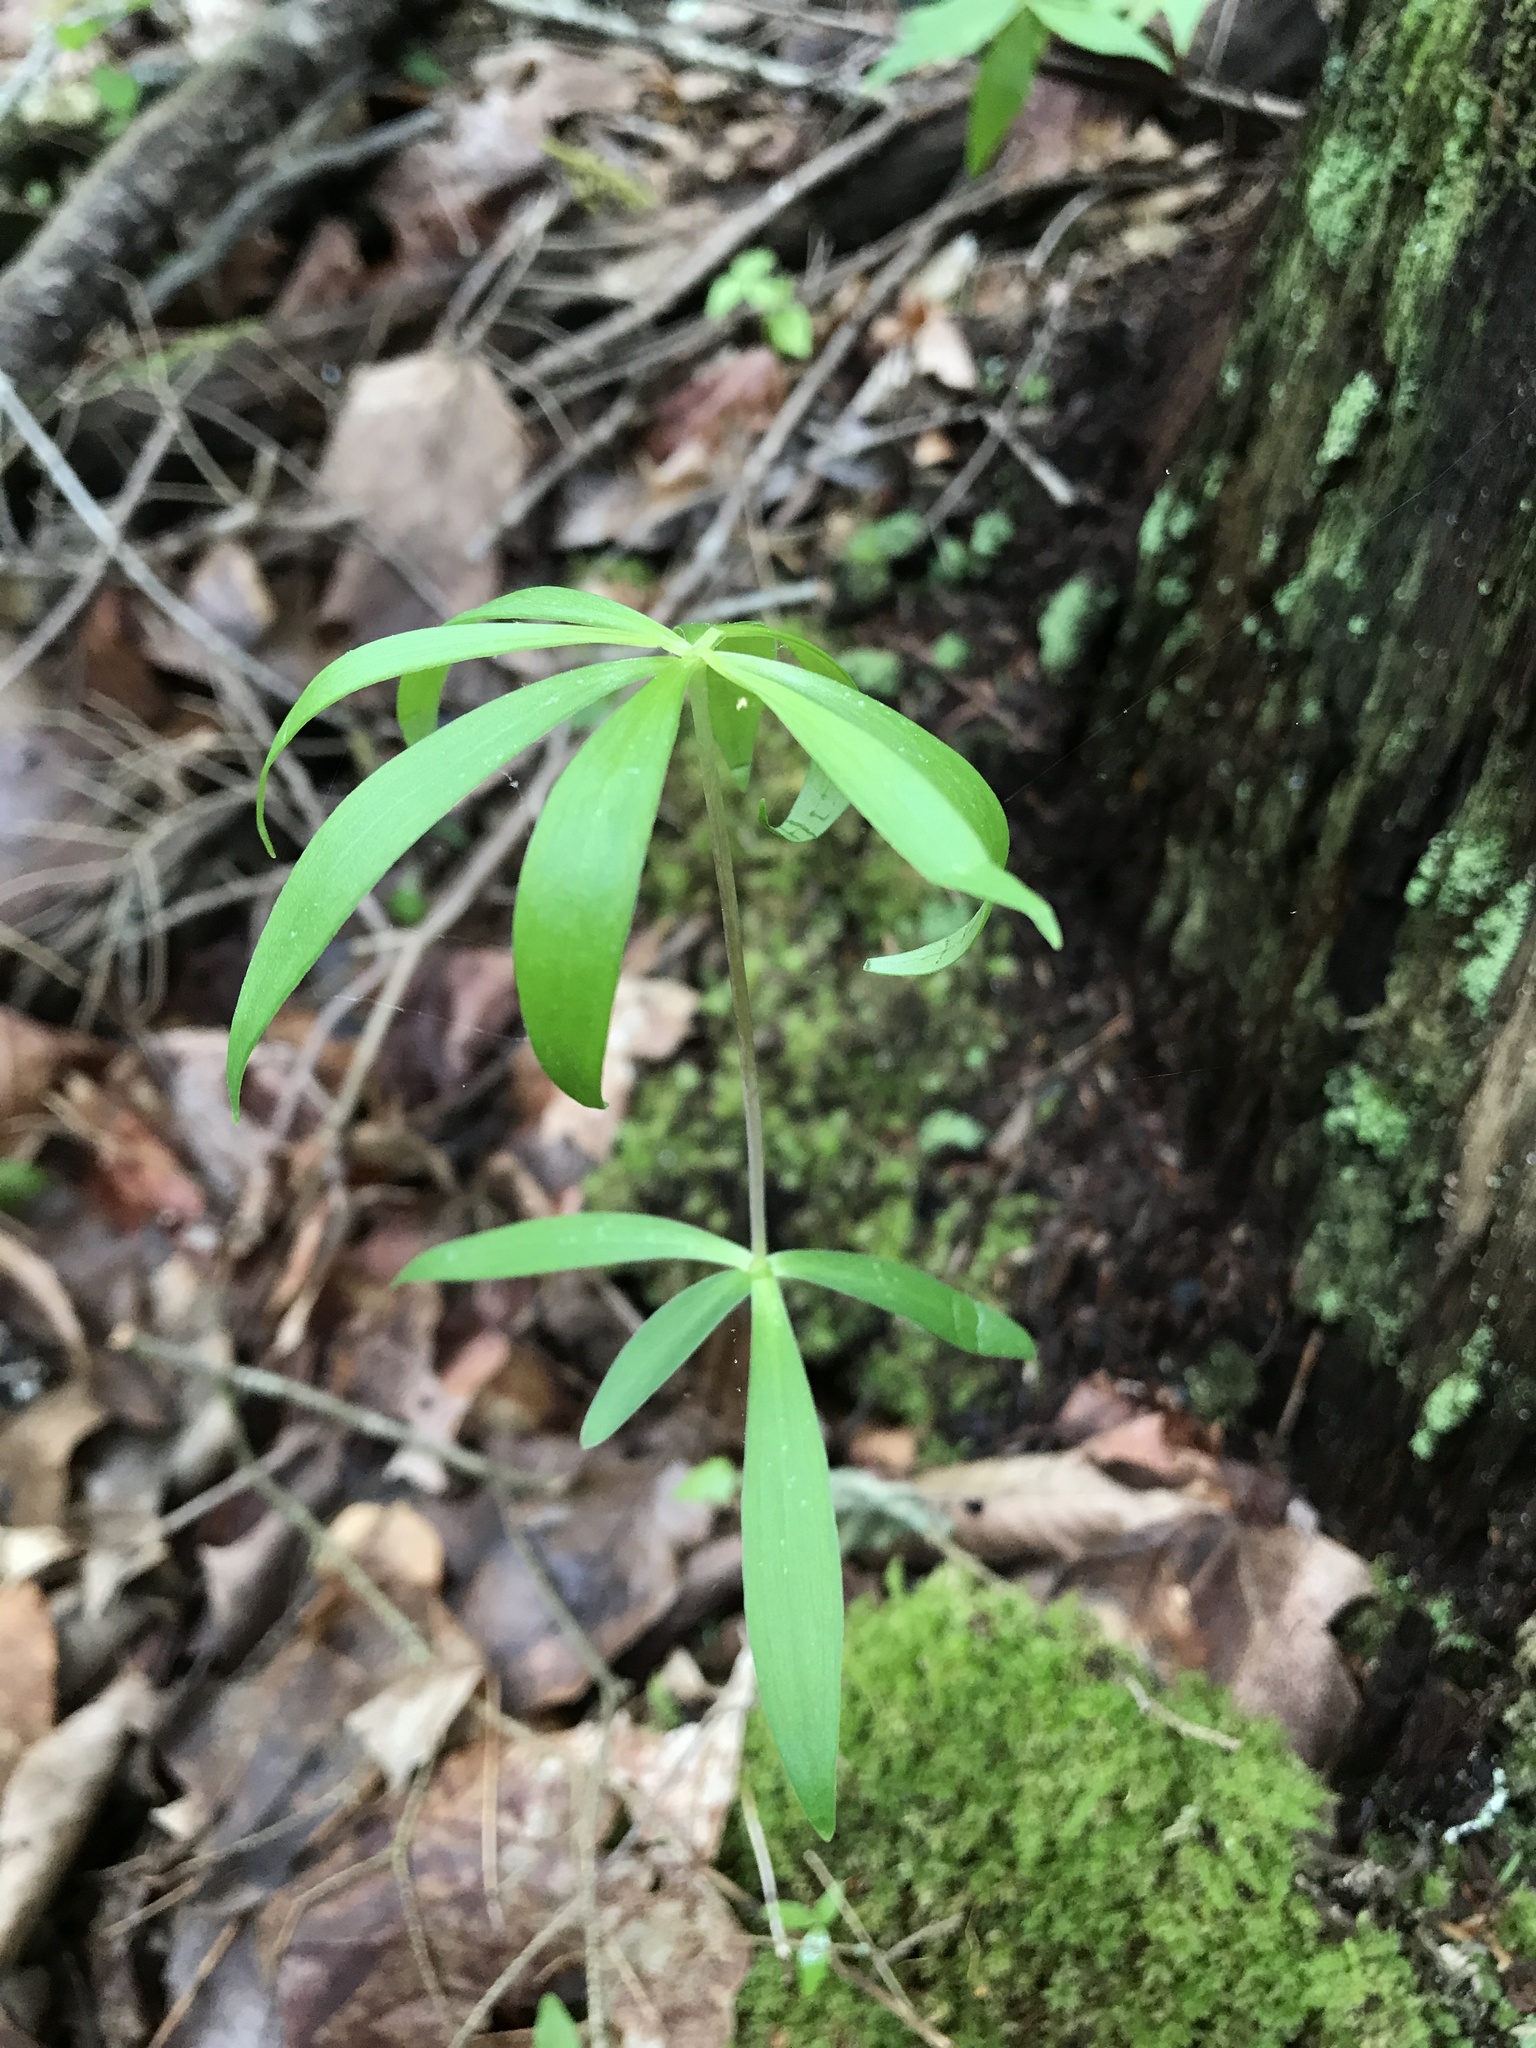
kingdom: Plantae
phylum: Tracheophyta
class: Liliopsida
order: Liliales
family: Liliaceae
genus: Medeola
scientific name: Medeola virginiana
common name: Indian cucumber-root
